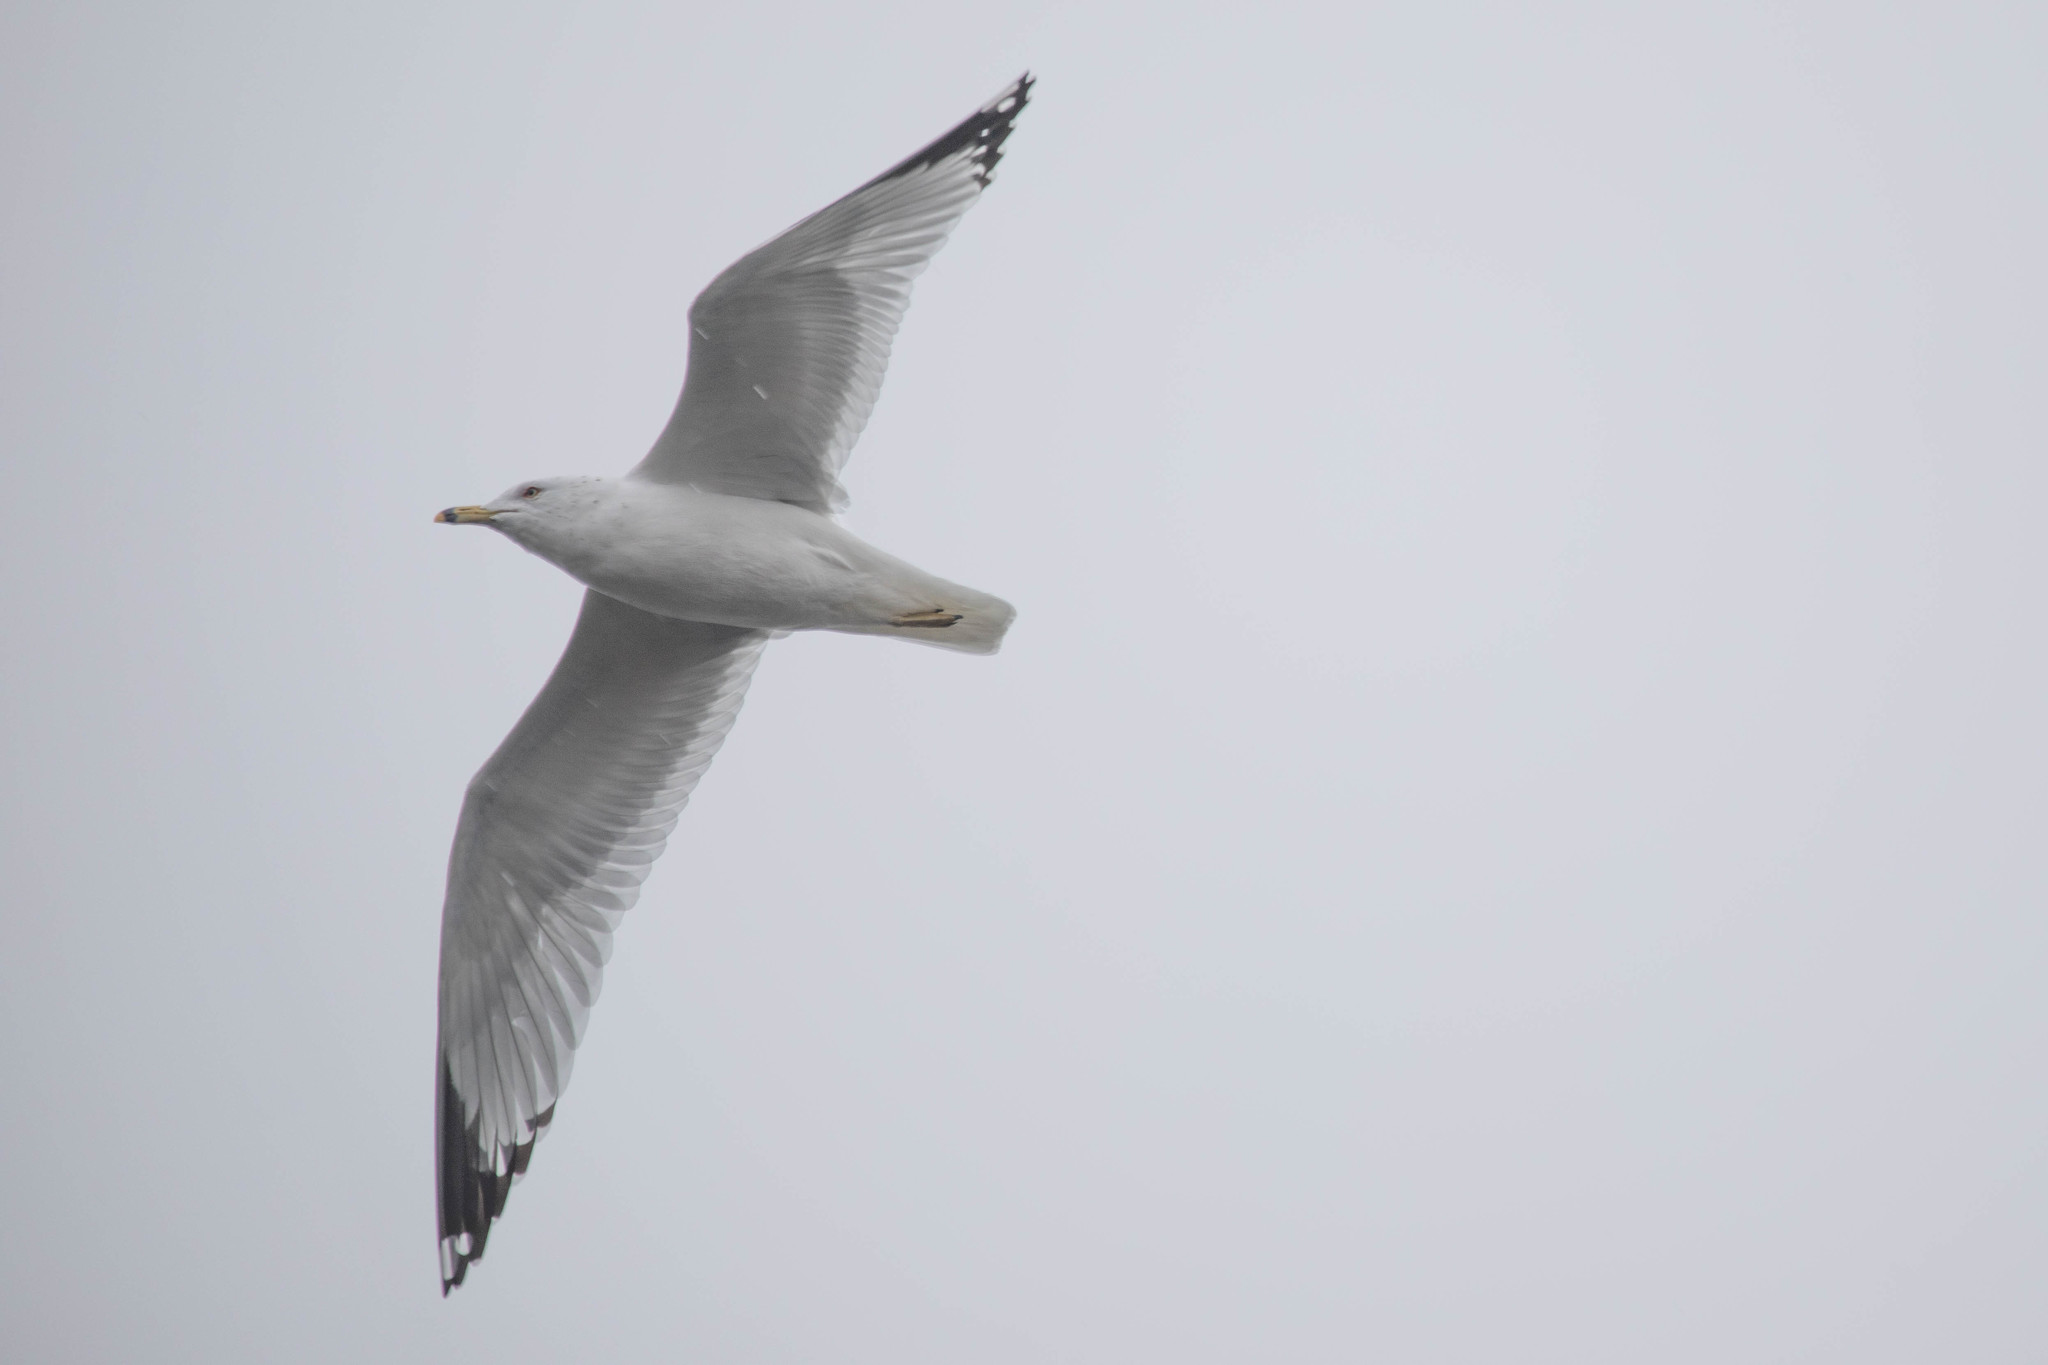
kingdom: Animalia
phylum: Chordata
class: Aves
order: Charadriiformes
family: Laridae
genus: Larus
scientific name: Larus delawarensis
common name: Ring-billed gull
